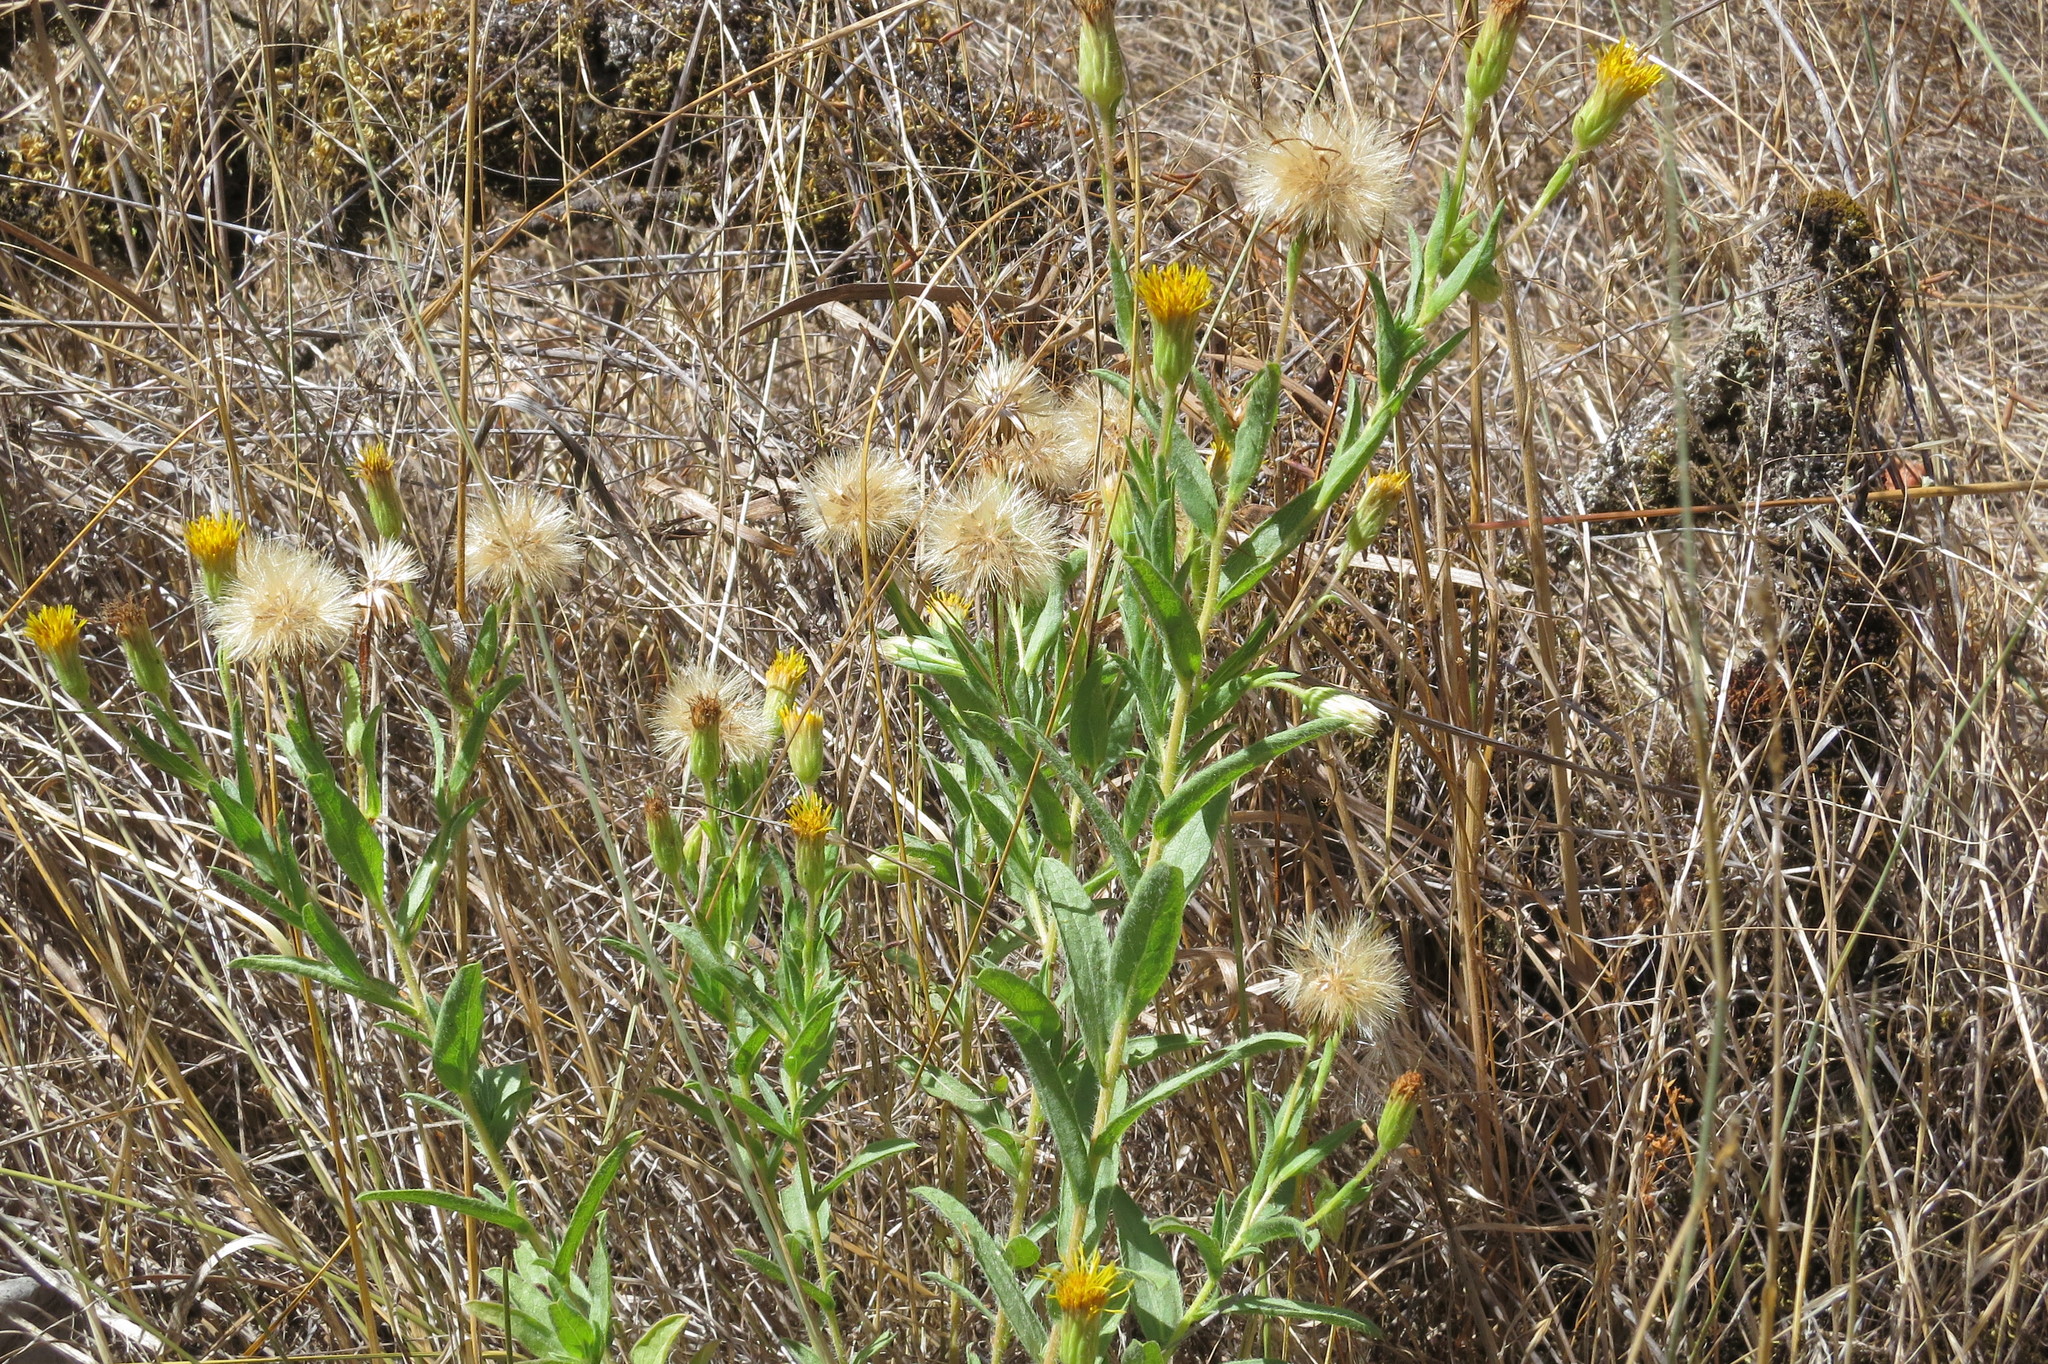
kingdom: Plantae
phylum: Tracheophyta
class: Magnoliopsida
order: Asterales
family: Asteraceae
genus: Heterotheca
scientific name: Heterotheca oregona
